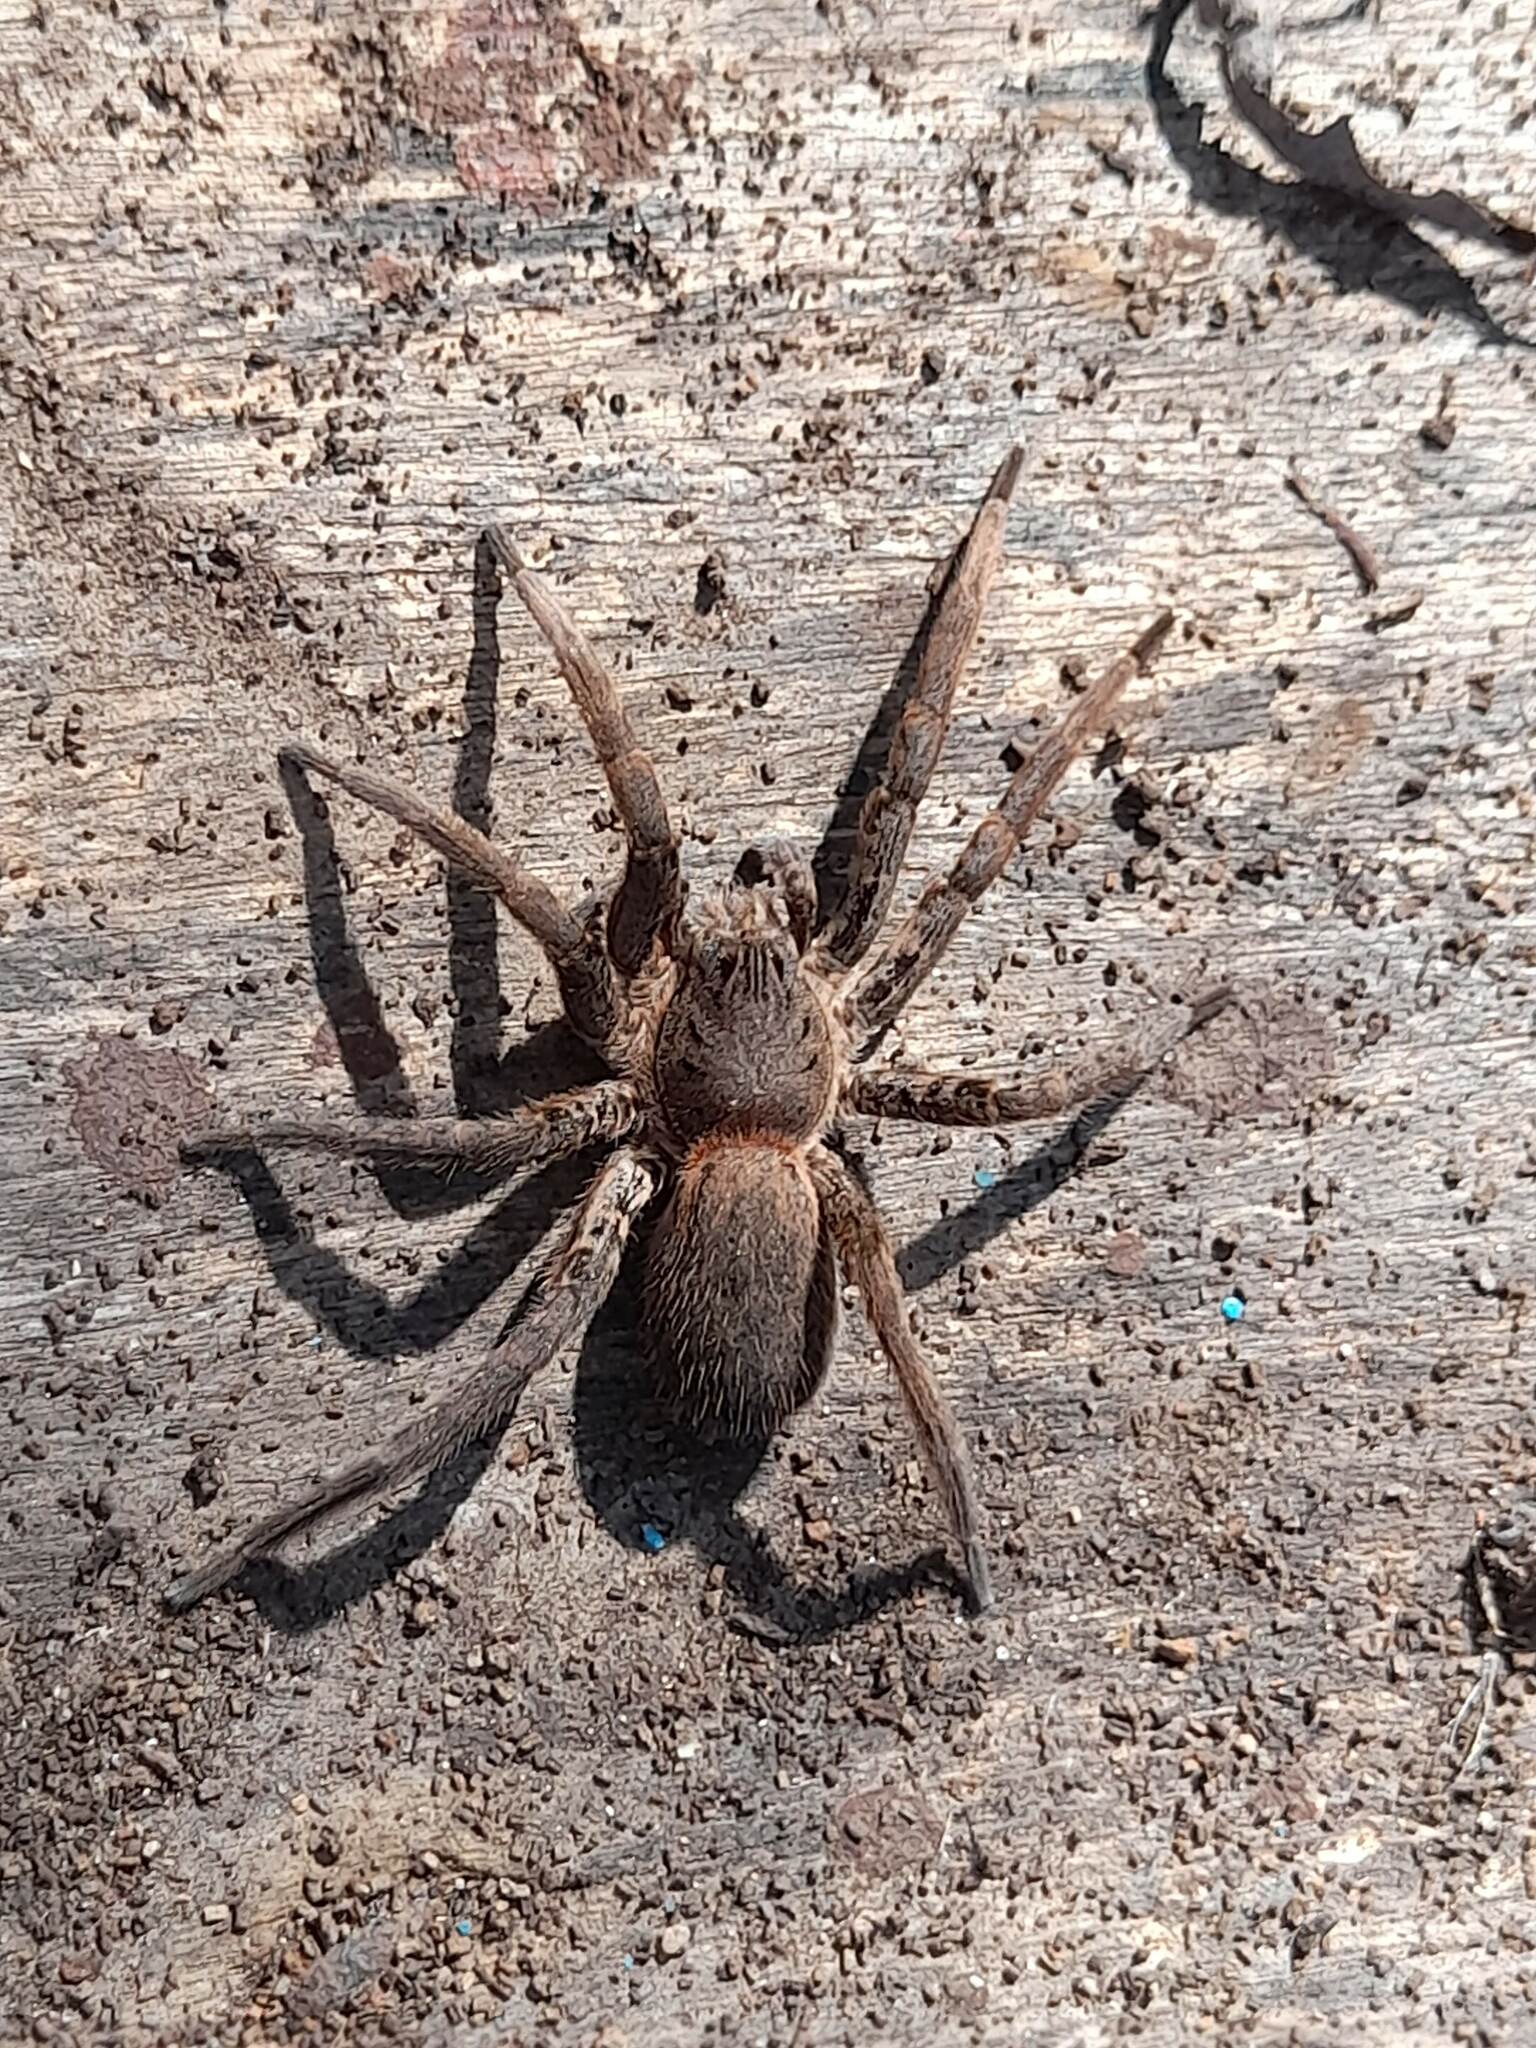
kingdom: Animalia
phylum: Arthropoda
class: Arachnida
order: Araneae
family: Ctenidae
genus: Ancylometes
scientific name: Ancylometes concolor
